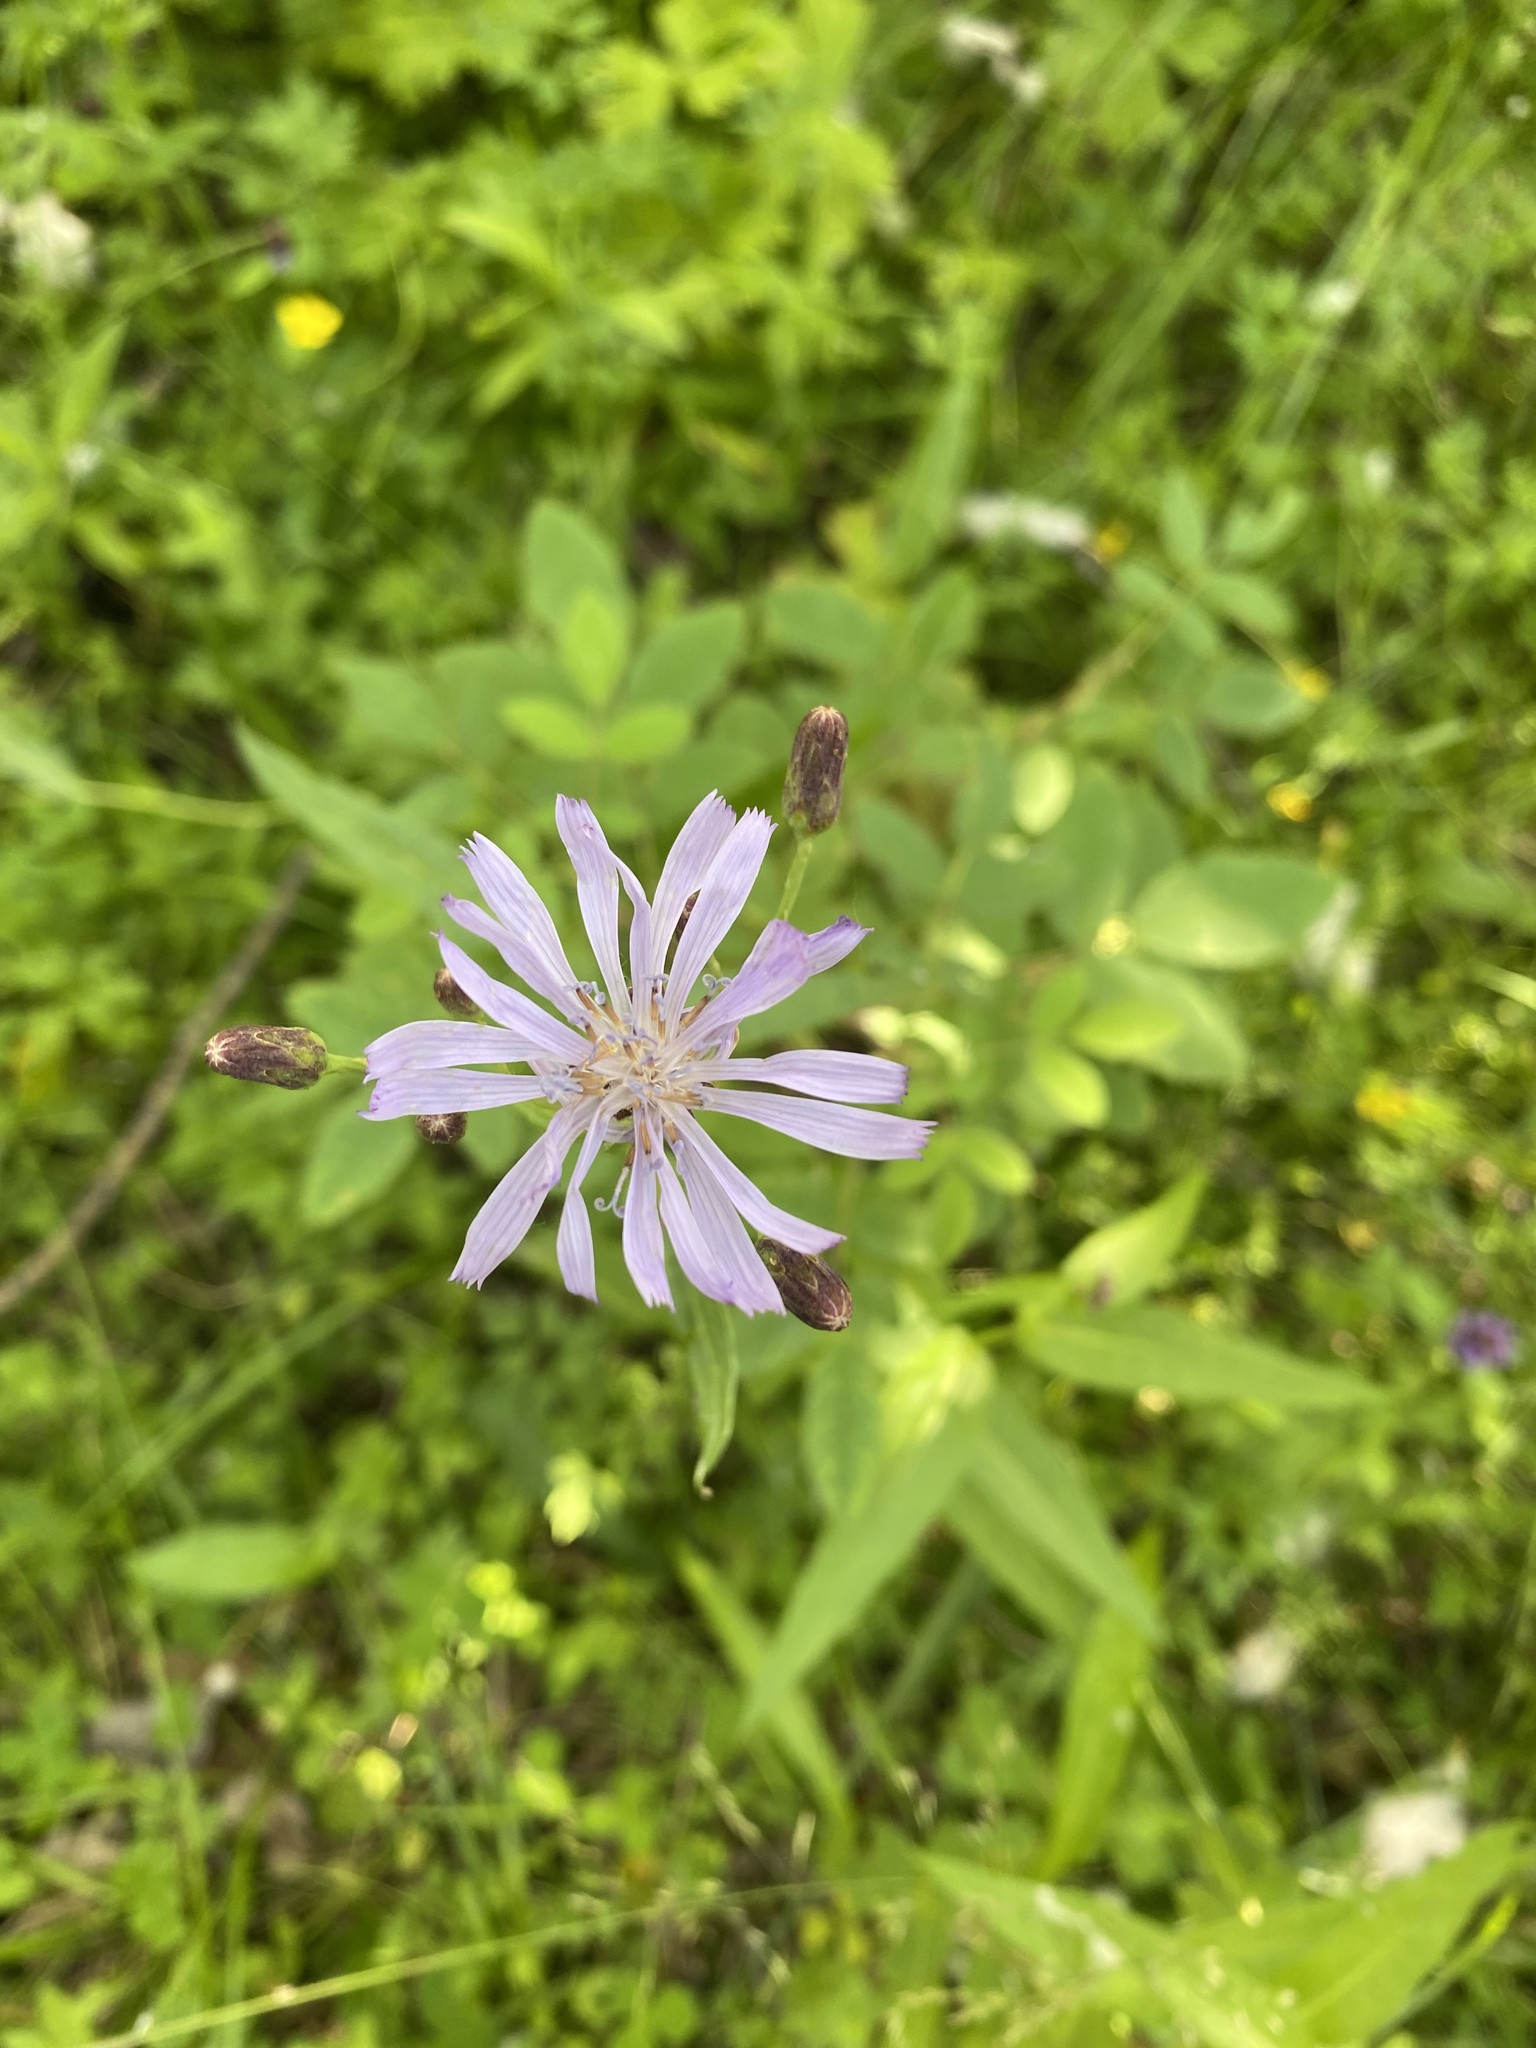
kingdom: Plantae
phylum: Tracheophyta
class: Magnoliopsida
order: Asterales
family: Asteraceae
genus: Lactuca
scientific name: Lactuca sibirica
